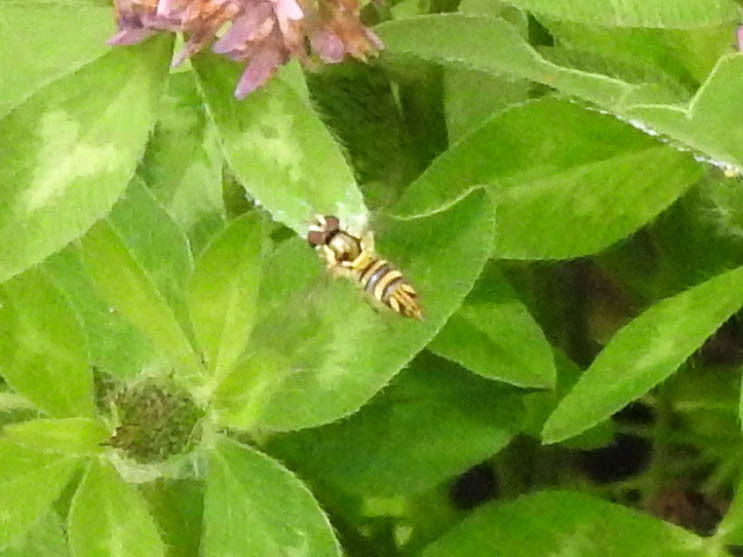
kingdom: Animalia
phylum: Arthropoda
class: Insecta
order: Diptera
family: Syrphidae
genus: Allograpta
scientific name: Allograpta obliqua
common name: Common oblique syrphid
